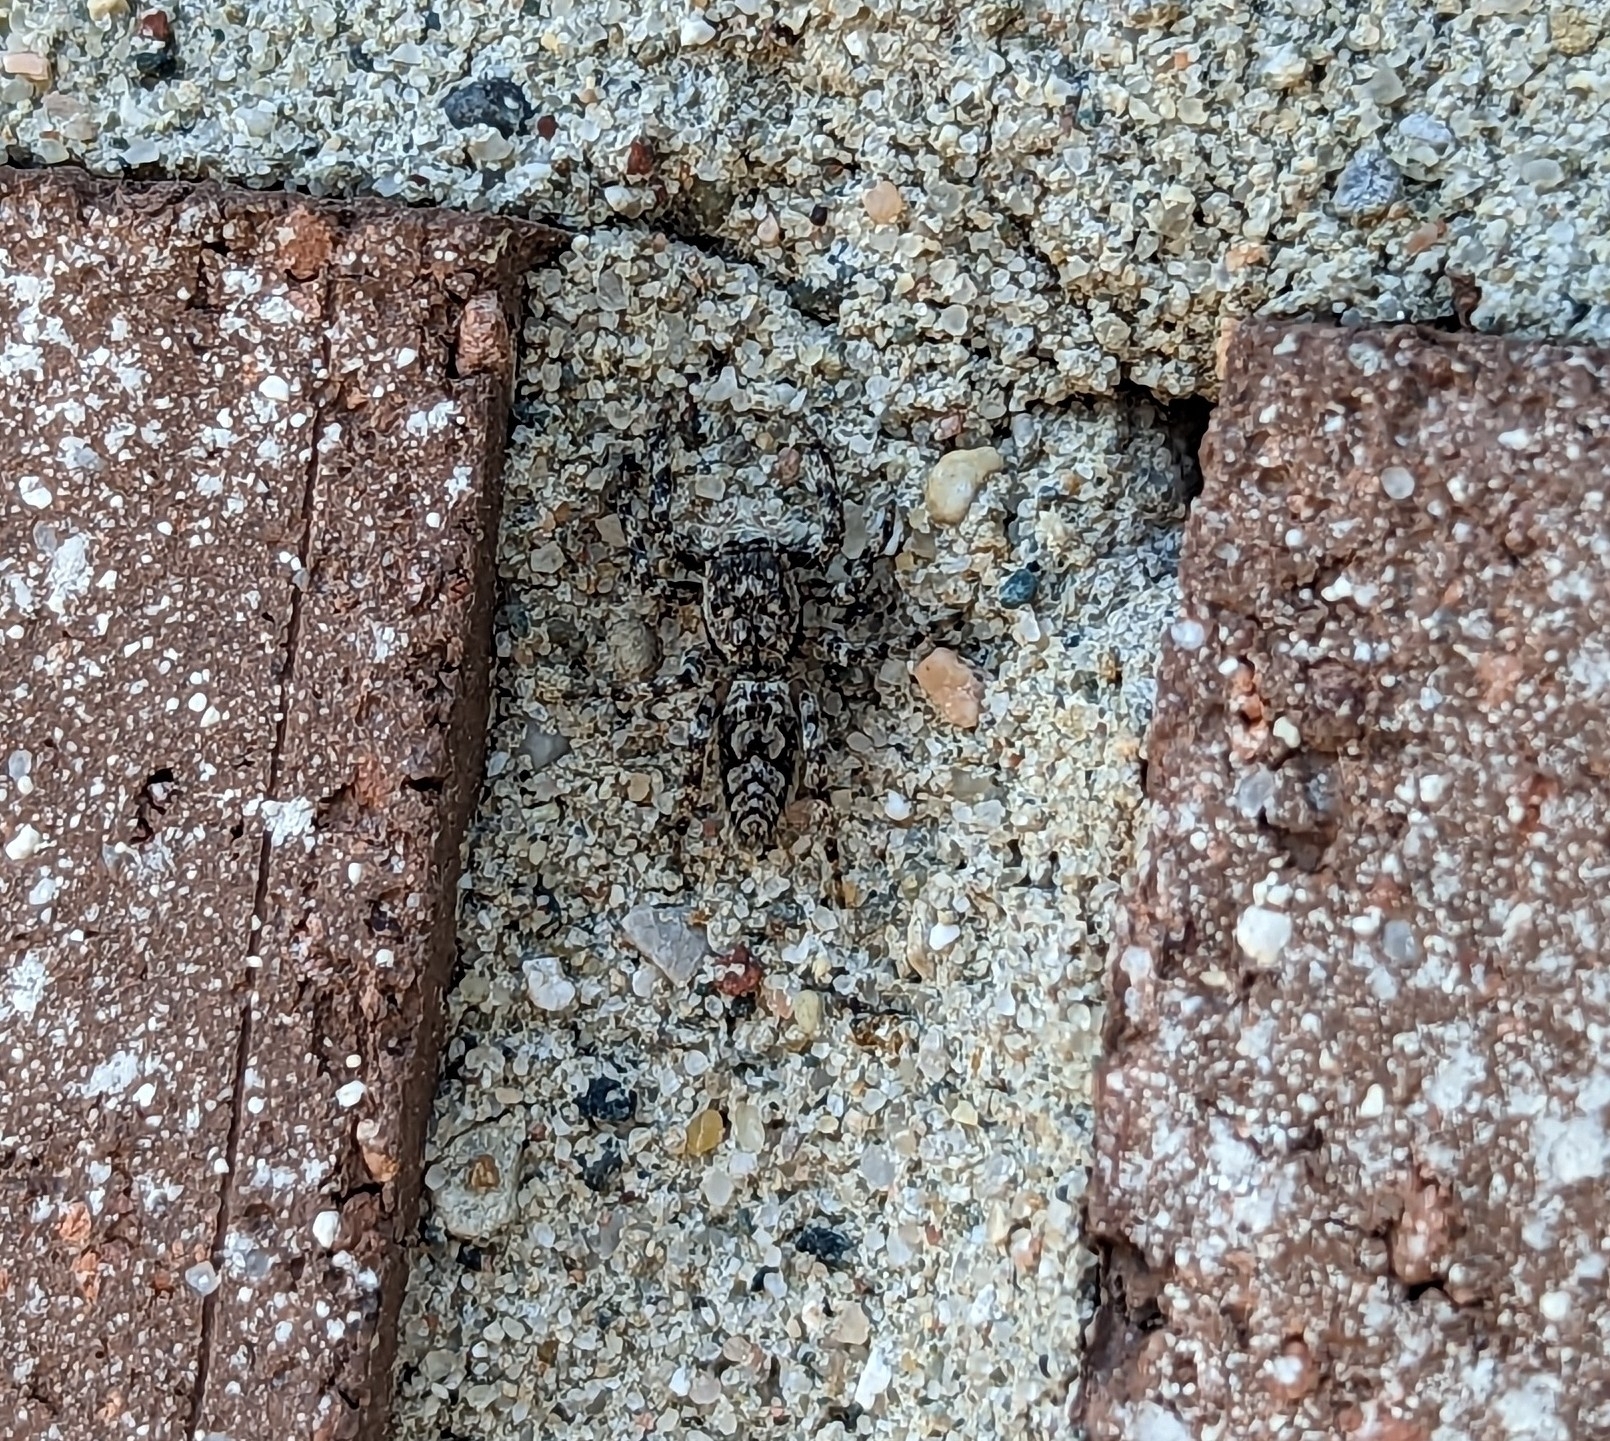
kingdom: Animalia
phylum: Arthropoda
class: Arachnida
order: Araneae
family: Salticidae
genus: Platycryptus
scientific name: Platycryptus undatus
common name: Tan jumping spider
